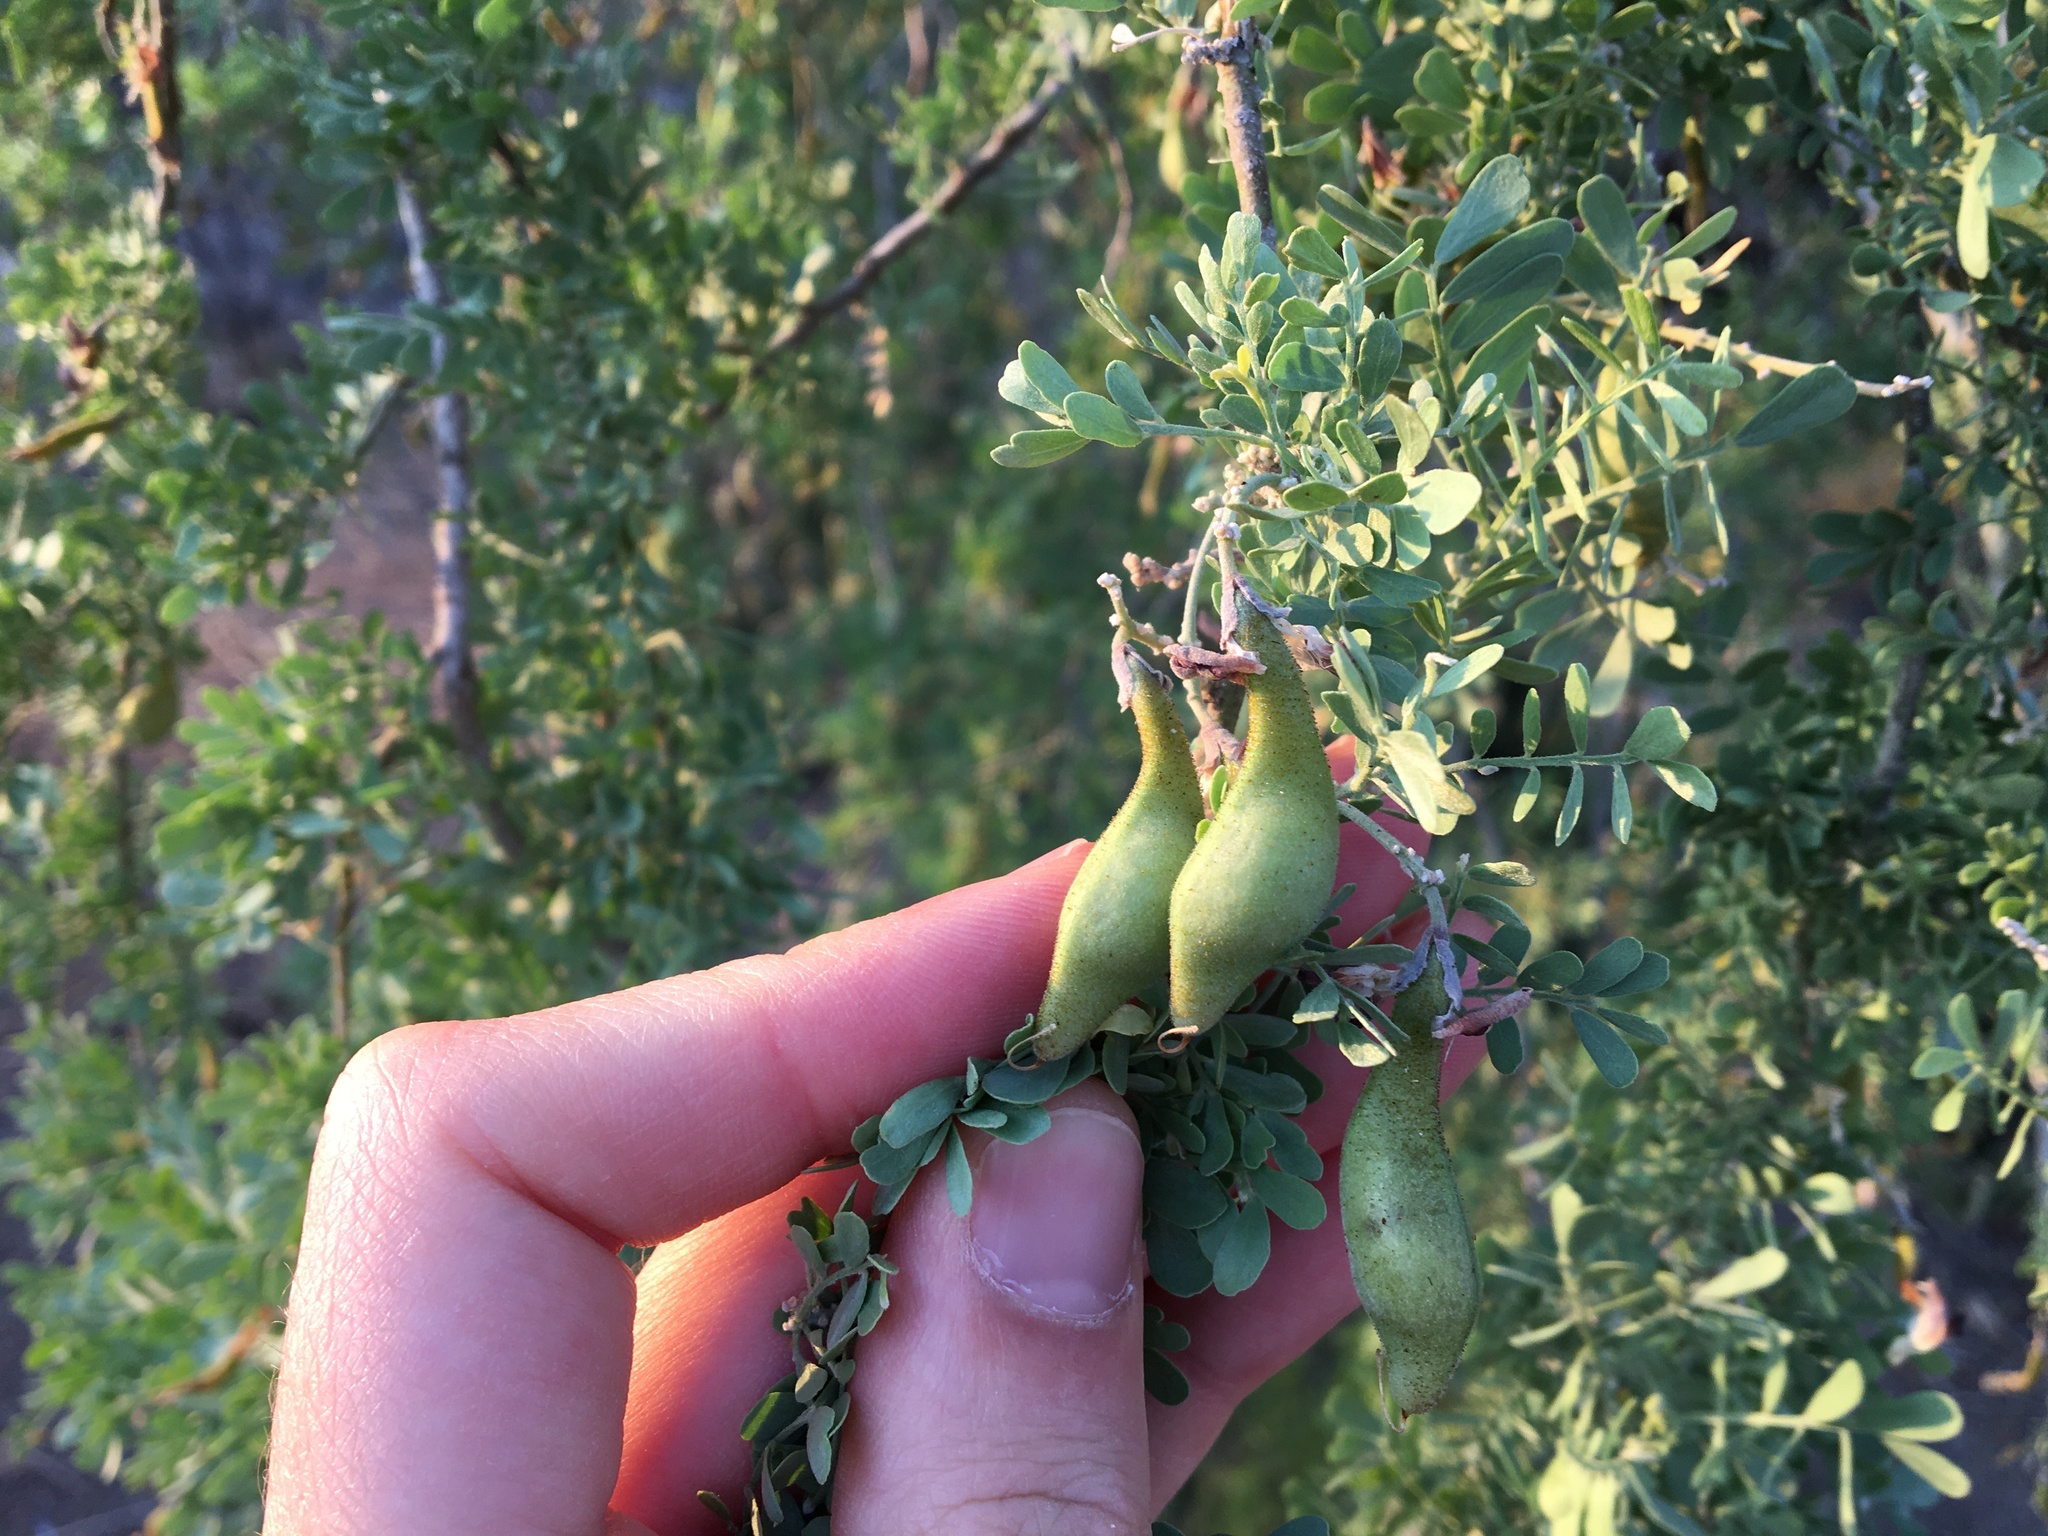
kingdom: Plantae
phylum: Tracheophyta
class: Magnoliopsida
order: Fabales
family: Fabaceae
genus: Olneya
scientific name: Olneya tesota
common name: Desert ironwood
